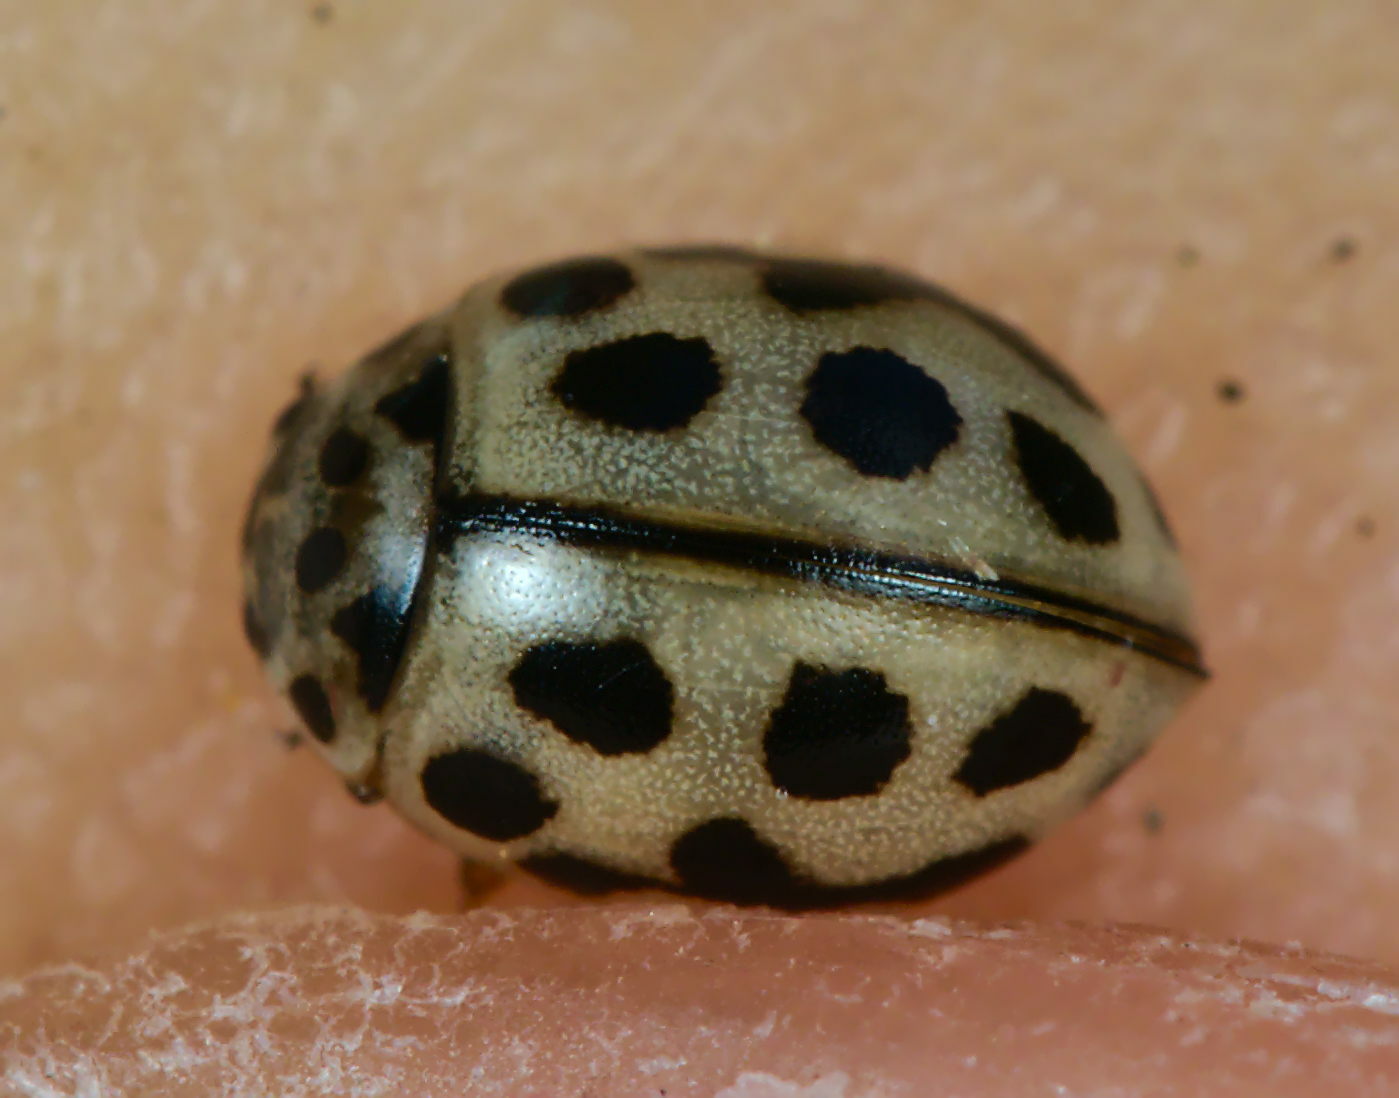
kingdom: Animalia
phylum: Arthropoda
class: Insecta
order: Coleoptera
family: Coccinellidae
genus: Tytthaspis
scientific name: Tytthaspis sedecimpunctata
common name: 16-spot ladybird
